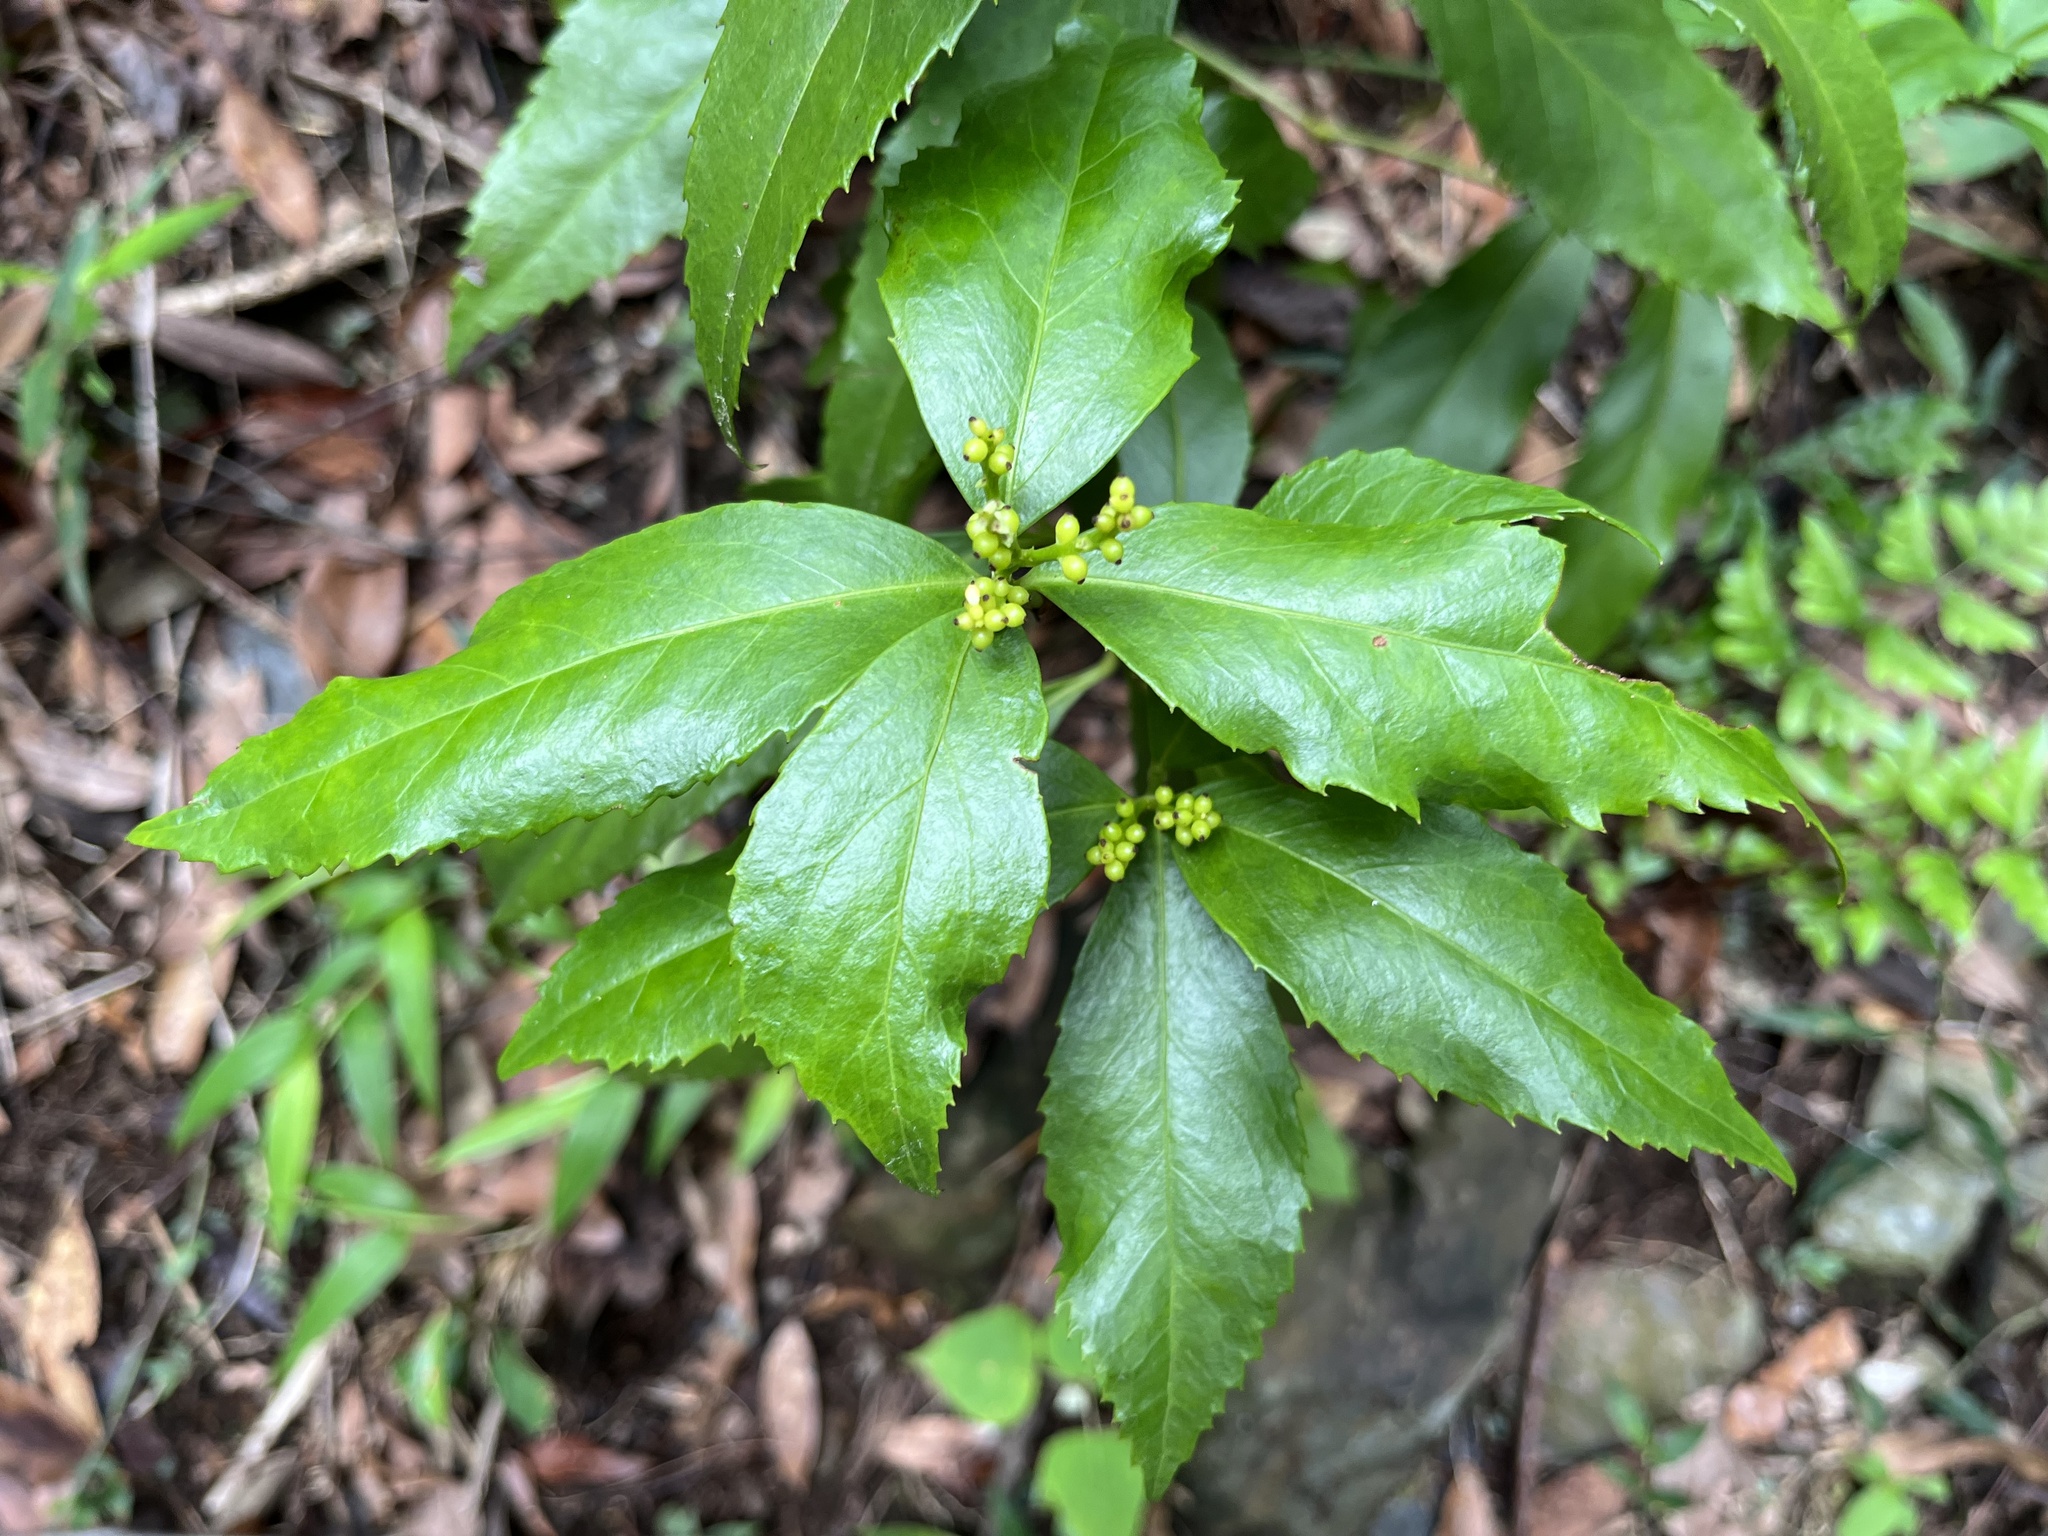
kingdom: Plantae
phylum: Tracheophyta
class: Magnoliopsida
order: Chloranthales
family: Chloranthaceae
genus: Sarcandra
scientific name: Sarcandra glabra
